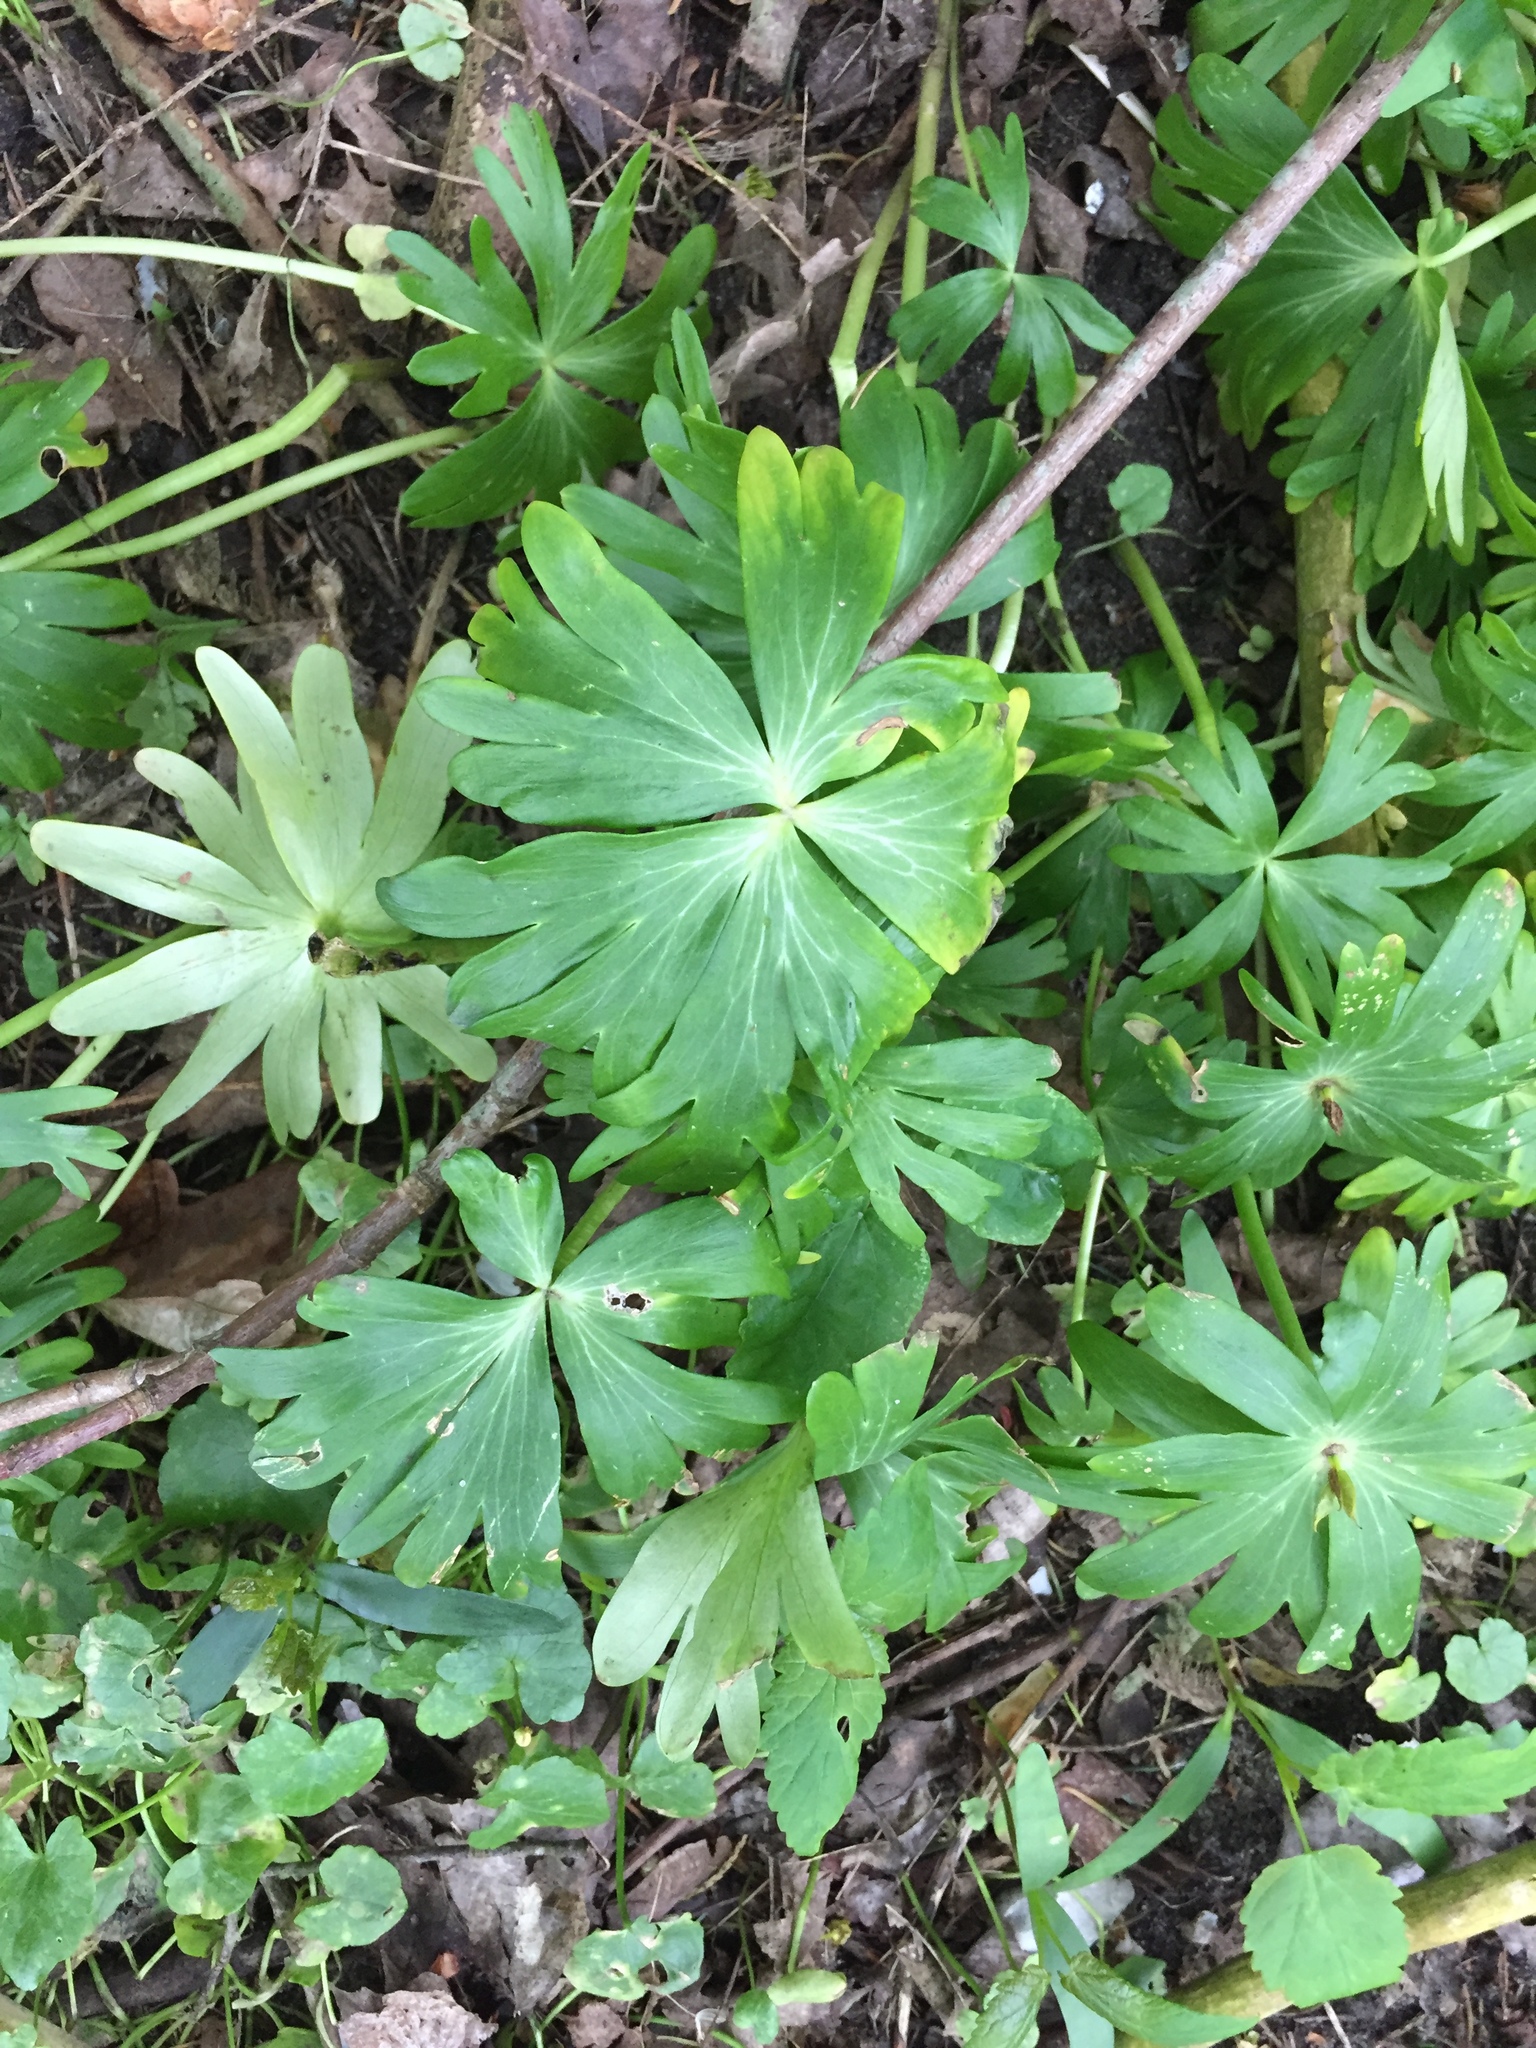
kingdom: Plantae
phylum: Tracheophyta
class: Magnoliopsida
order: Ranunculales
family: Ranunculaceae
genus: Eranthis
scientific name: Eranthis hyemalis
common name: Winter aconite
